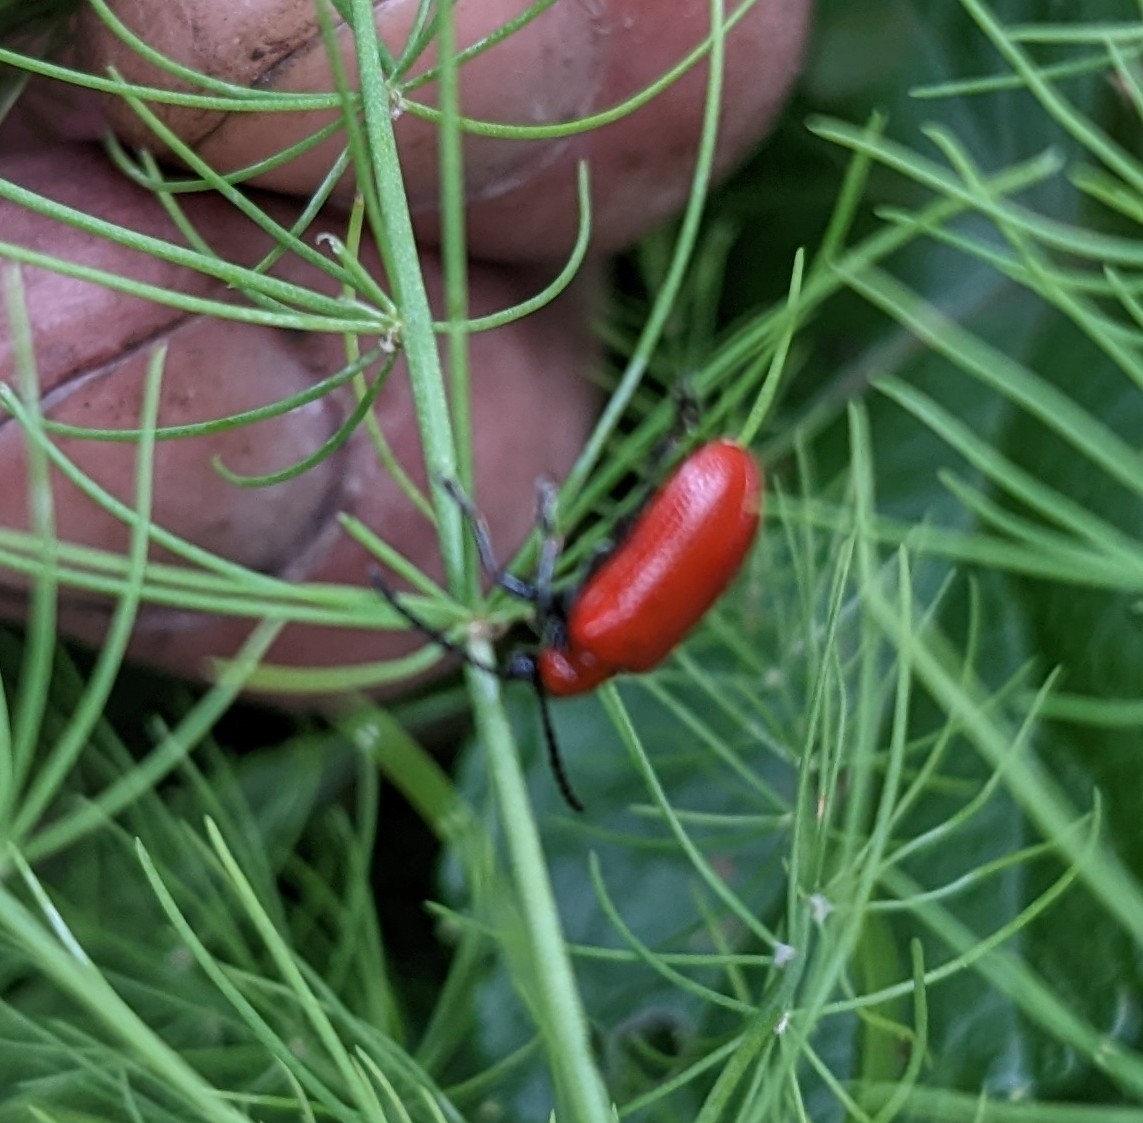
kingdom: Animalia
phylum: Arthropoda
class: Insecta
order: Coleoptera
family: Chrysomelidae
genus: Lilioceris
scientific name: Lilioceris lilii
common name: Lily beetle
